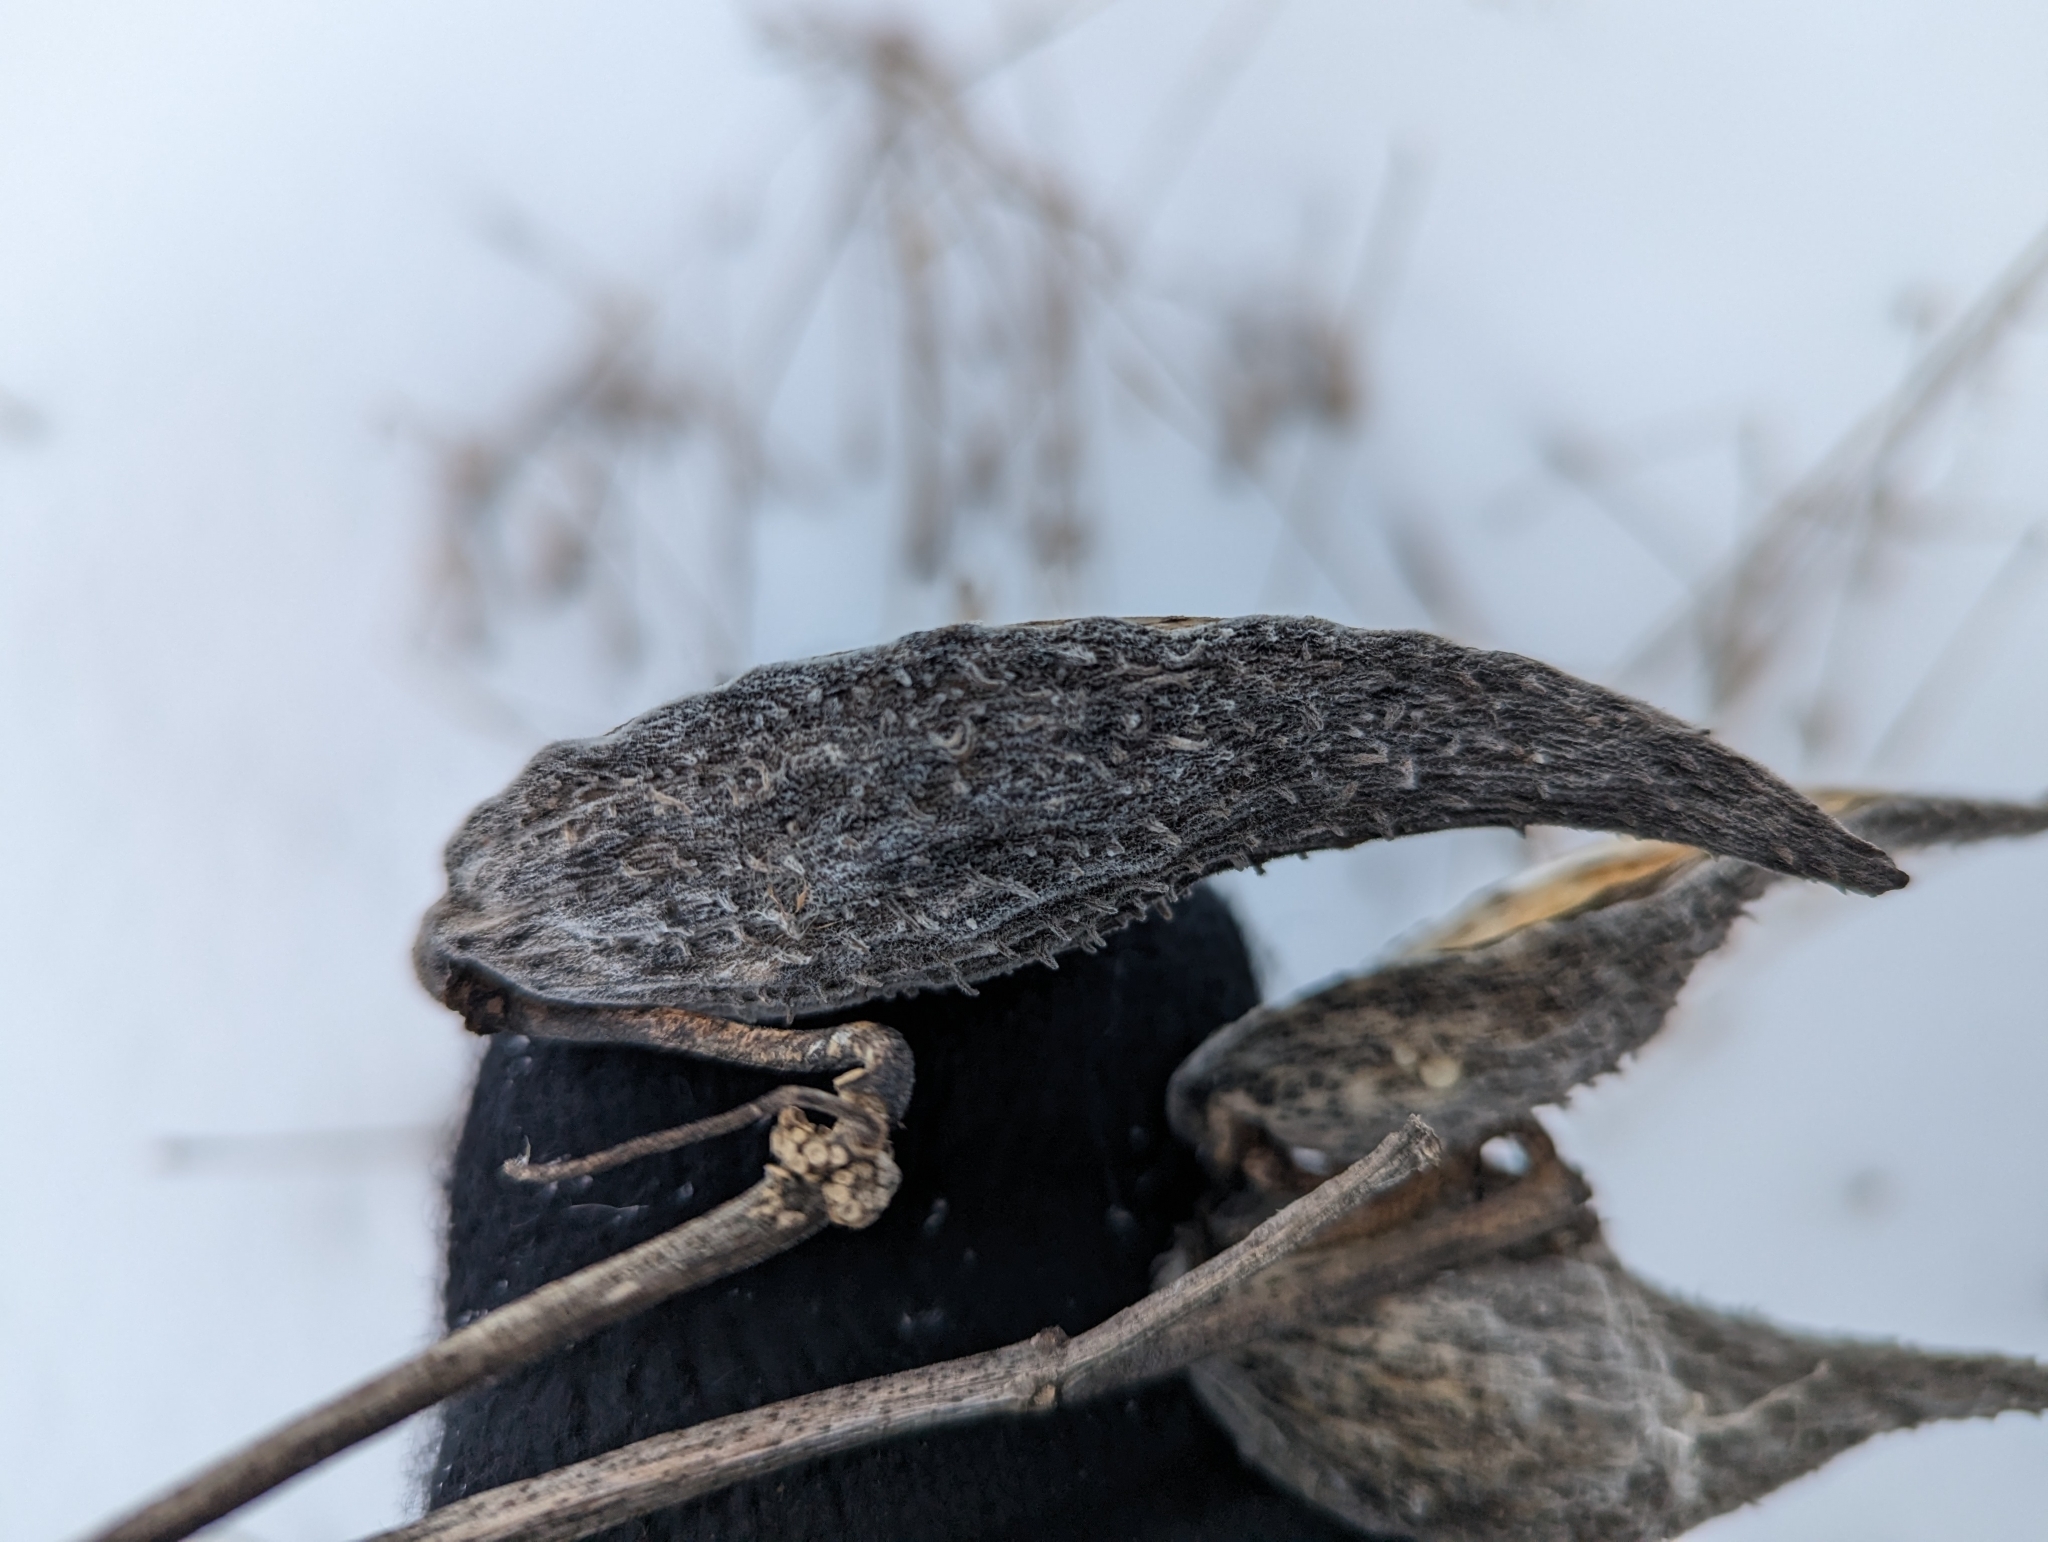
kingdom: Plantae
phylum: Tracheophyta
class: Magnoliopsida
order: Gentianales
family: Apocynaceae
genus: Asclepias
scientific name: Asclepias syriaca
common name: Common milkweed
